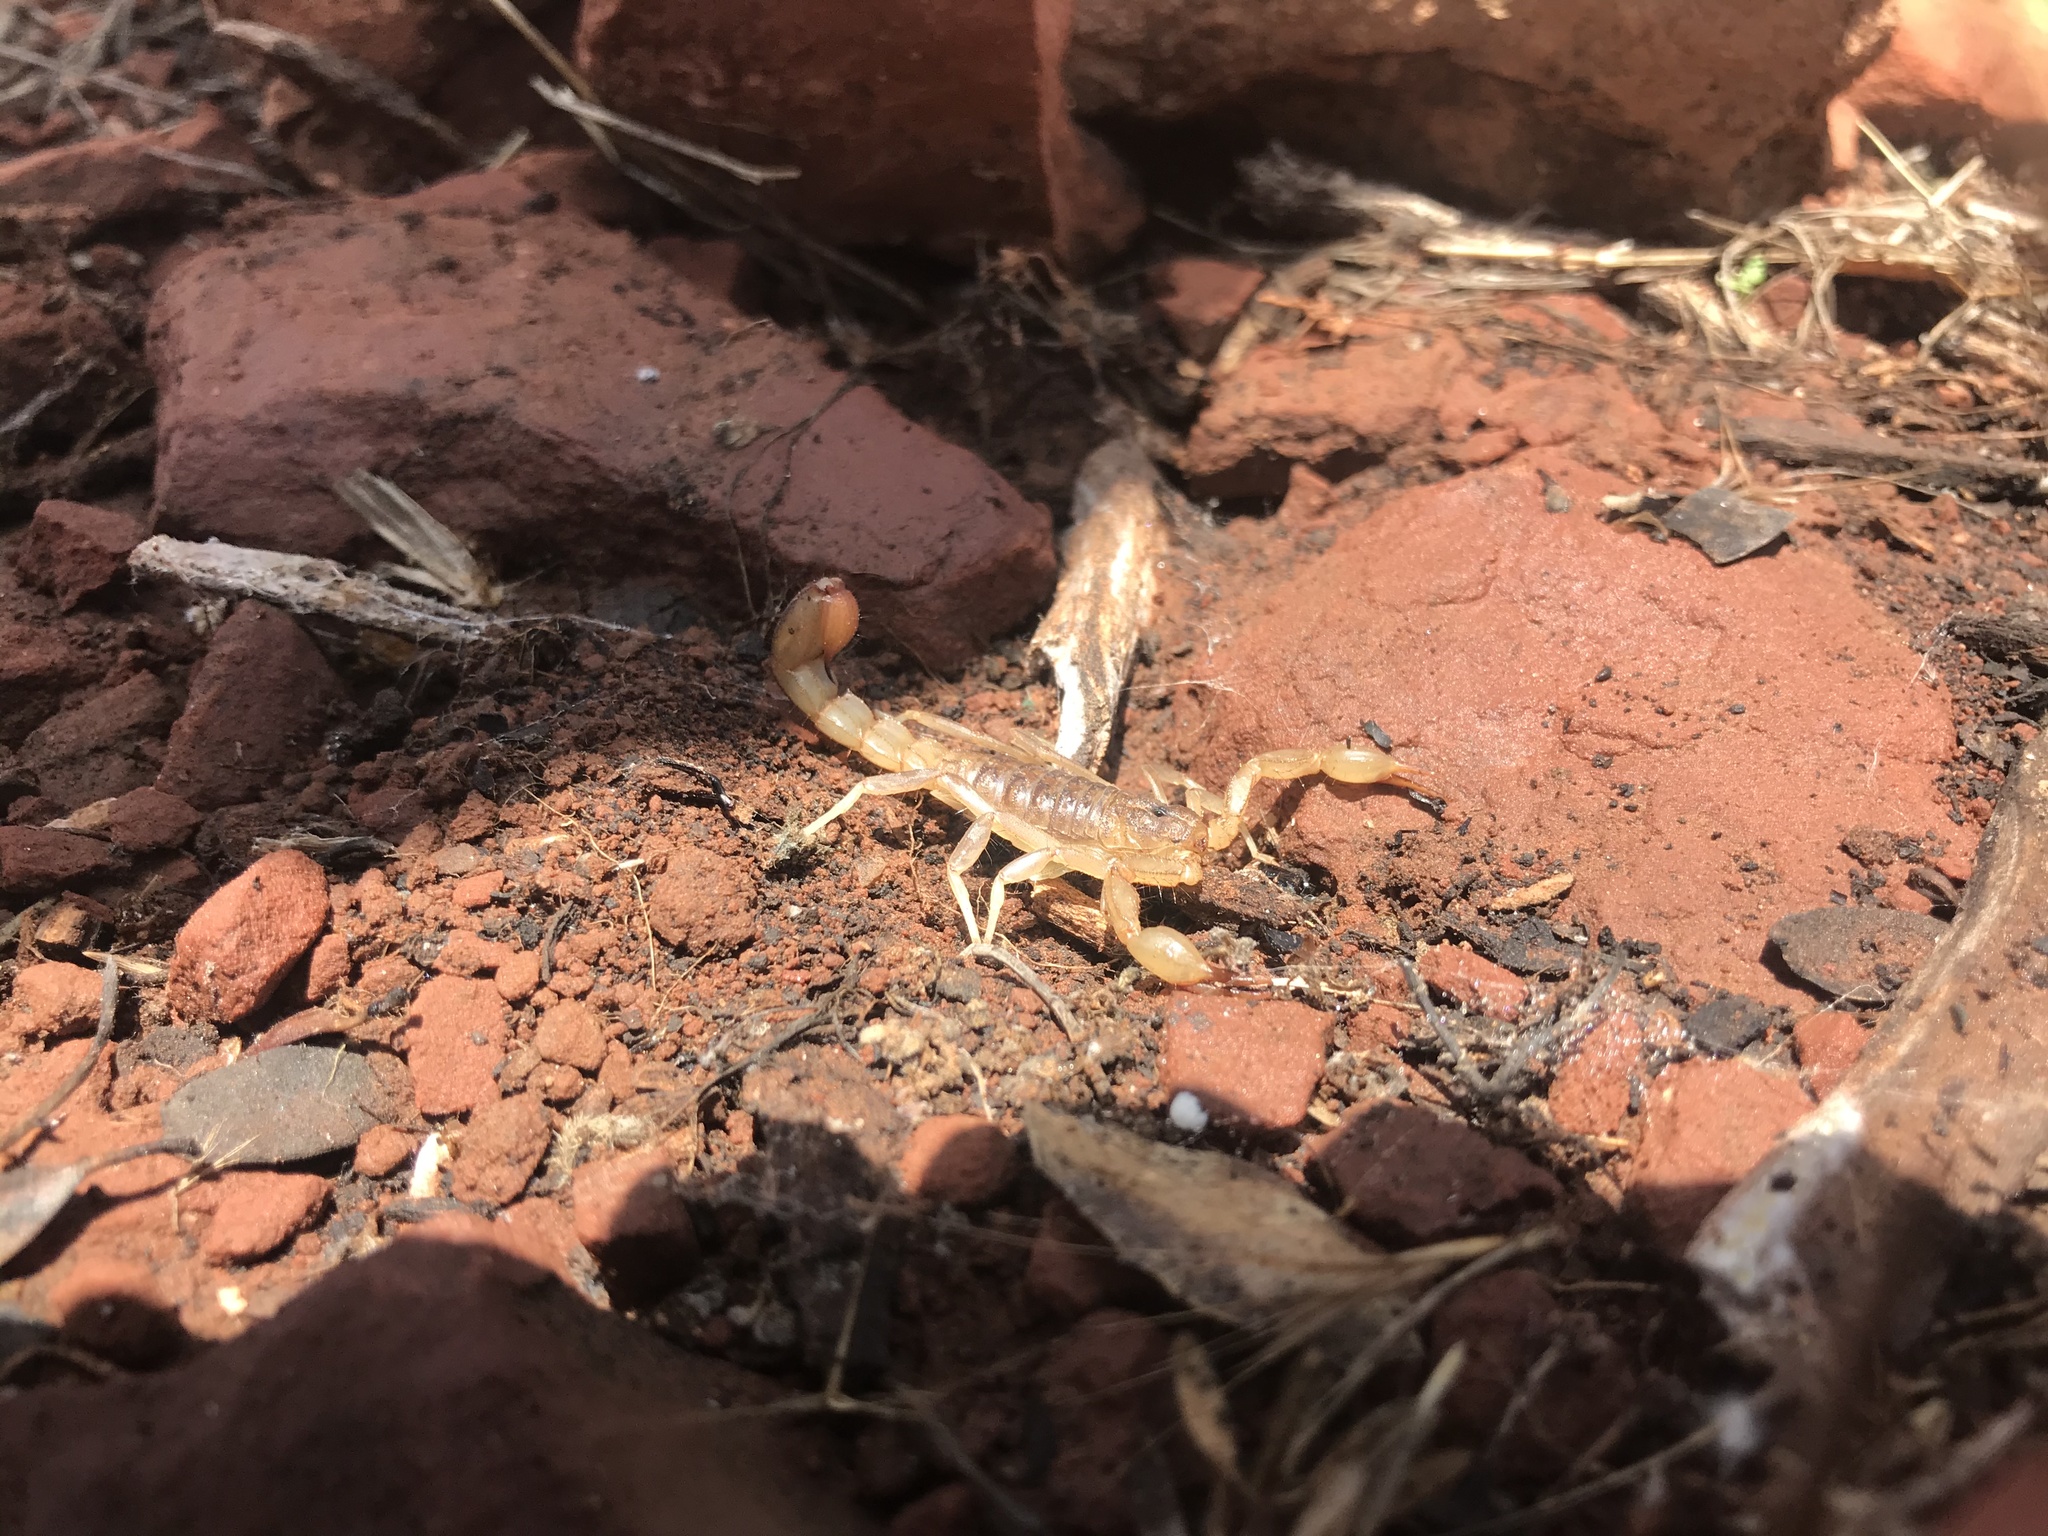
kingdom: Animalia
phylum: Arthropoda
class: Arachnida
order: Scorpiones
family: Vaejovidae
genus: Paravaejovis
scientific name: Paravaejovis spinigerus
